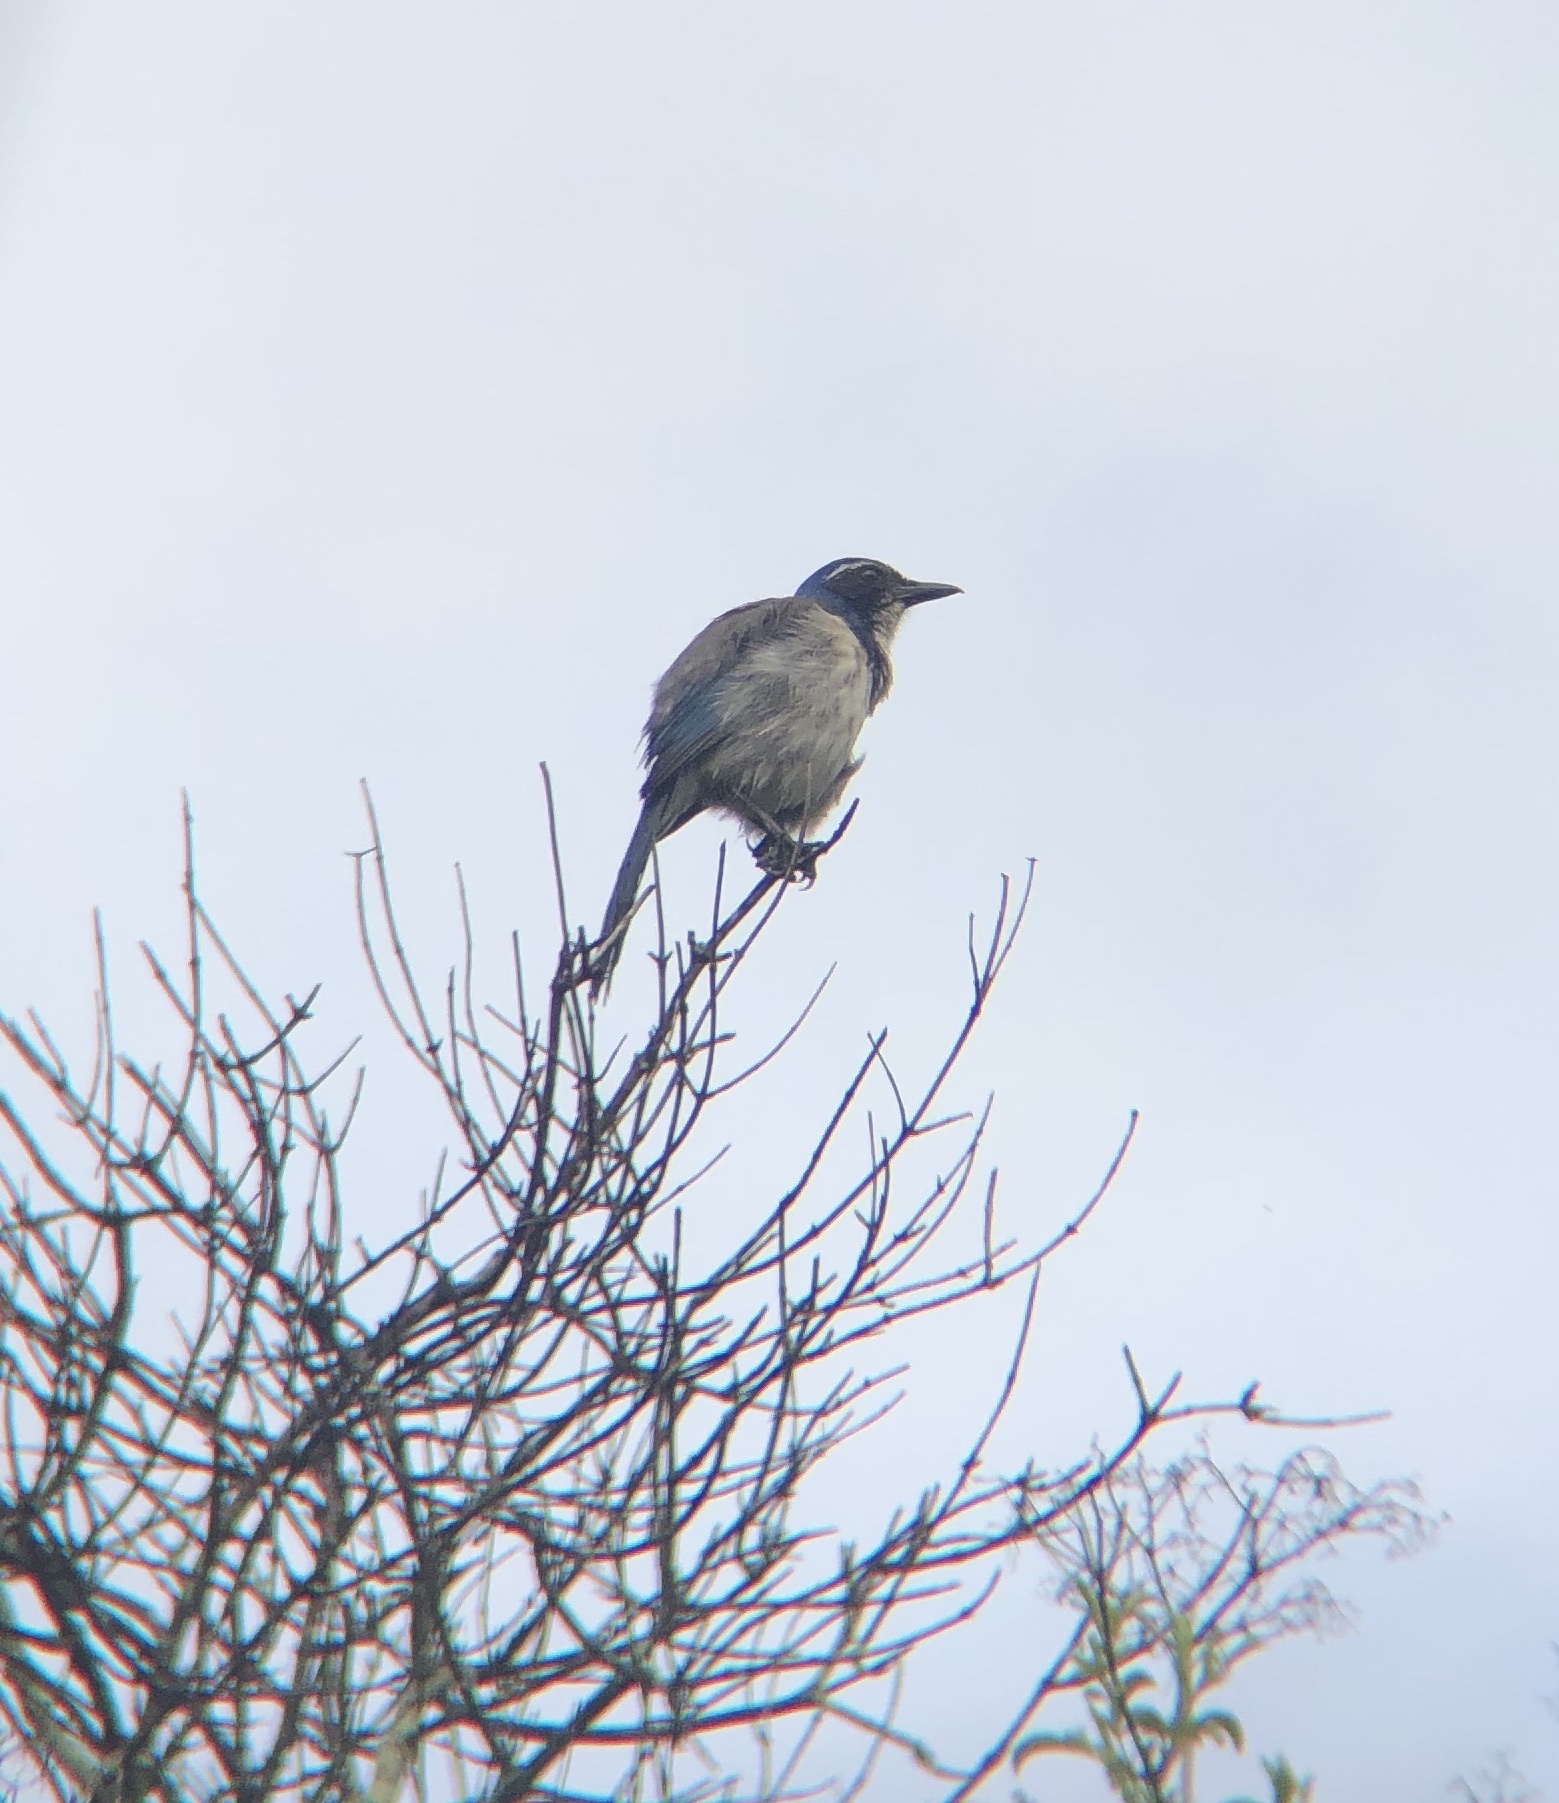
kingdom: Animalia
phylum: Chordata
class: Aves
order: Passeriformes
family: Corvidae
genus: Aphelocoma
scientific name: Aphelocoma californica
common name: California scrub-jay
